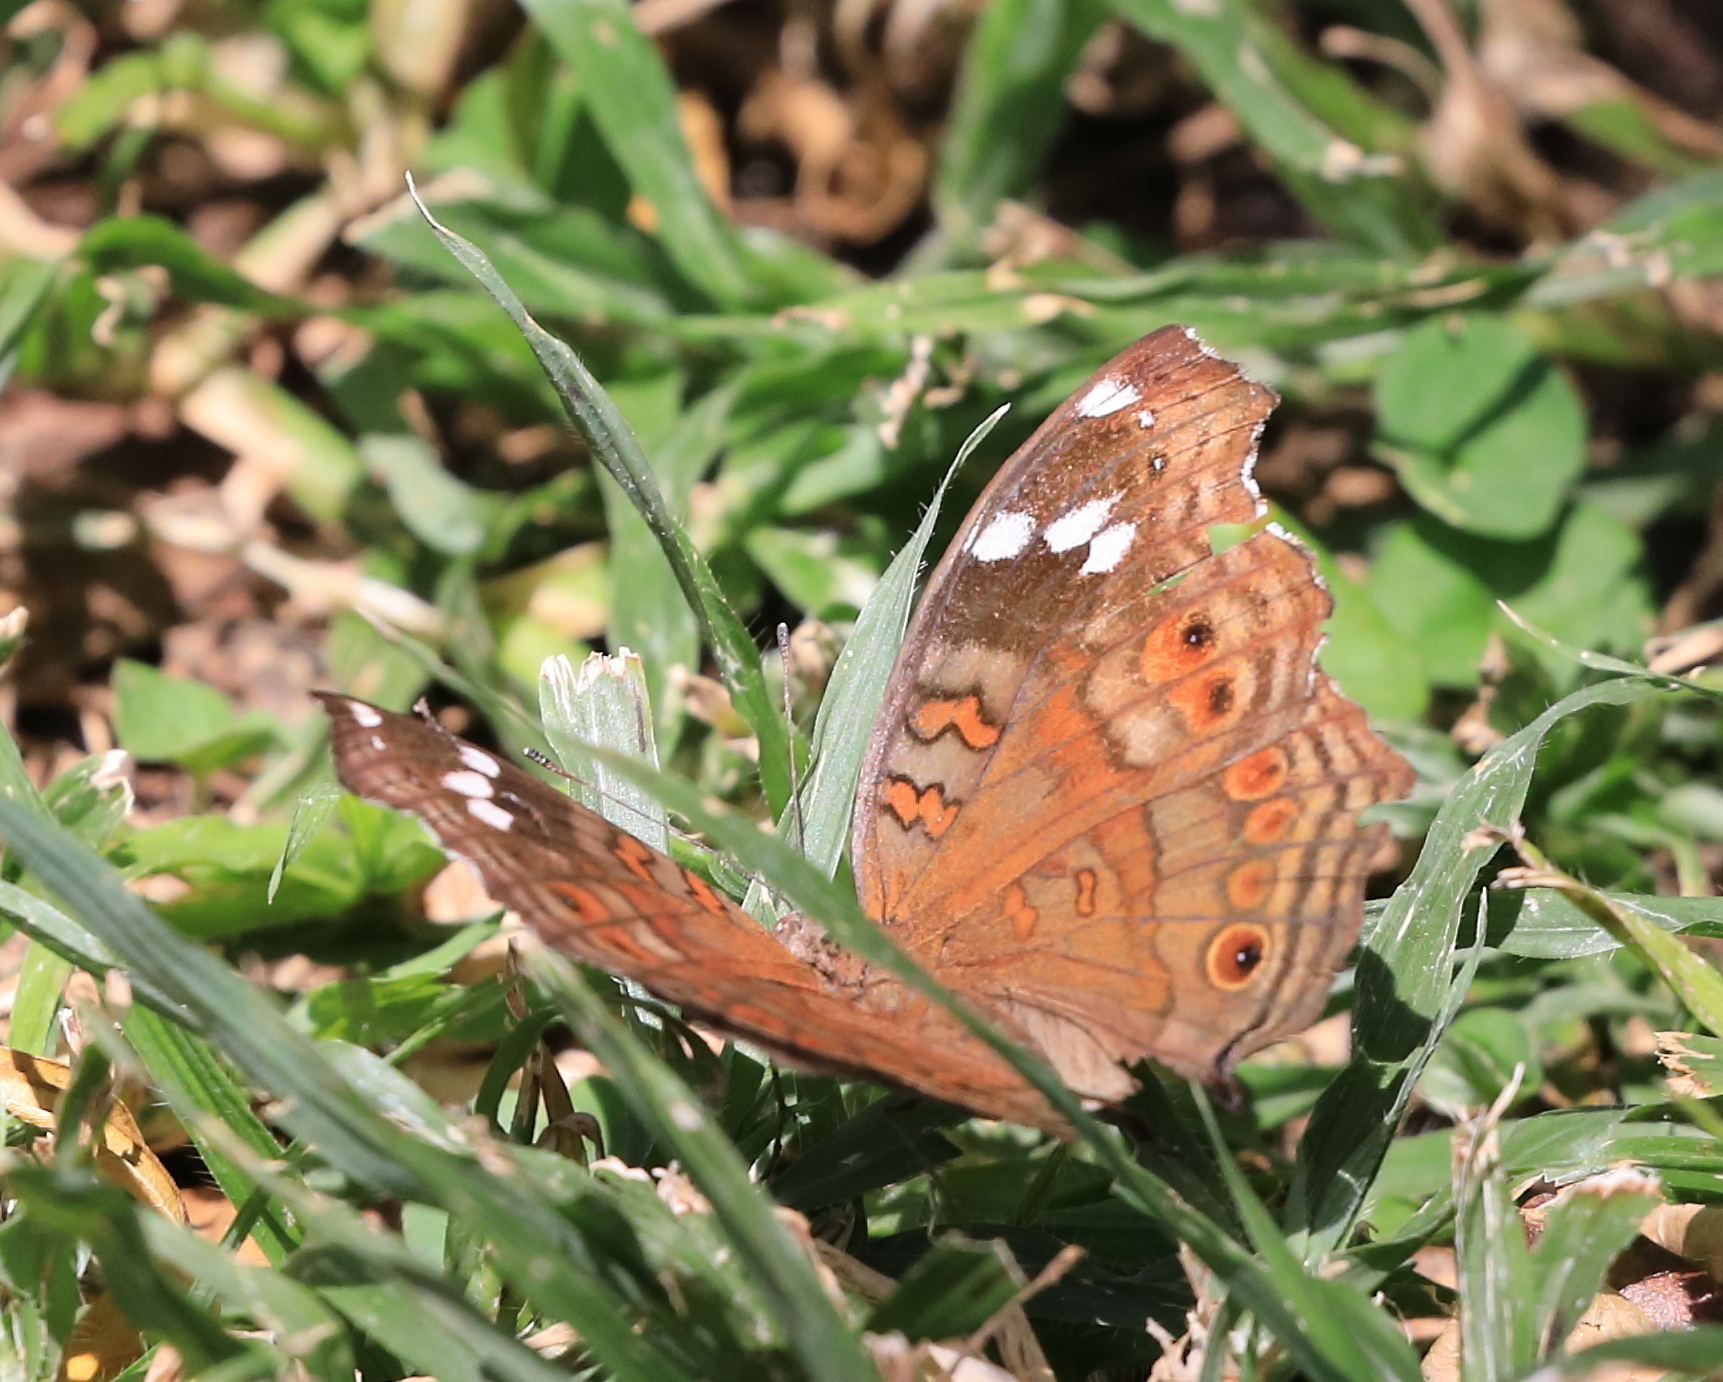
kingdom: Animalia
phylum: Arthropoda
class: Insecta
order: Lepidoptera
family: Nymphalidae
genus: Junonia
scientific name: Junonia natalica
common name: Brown pansy
